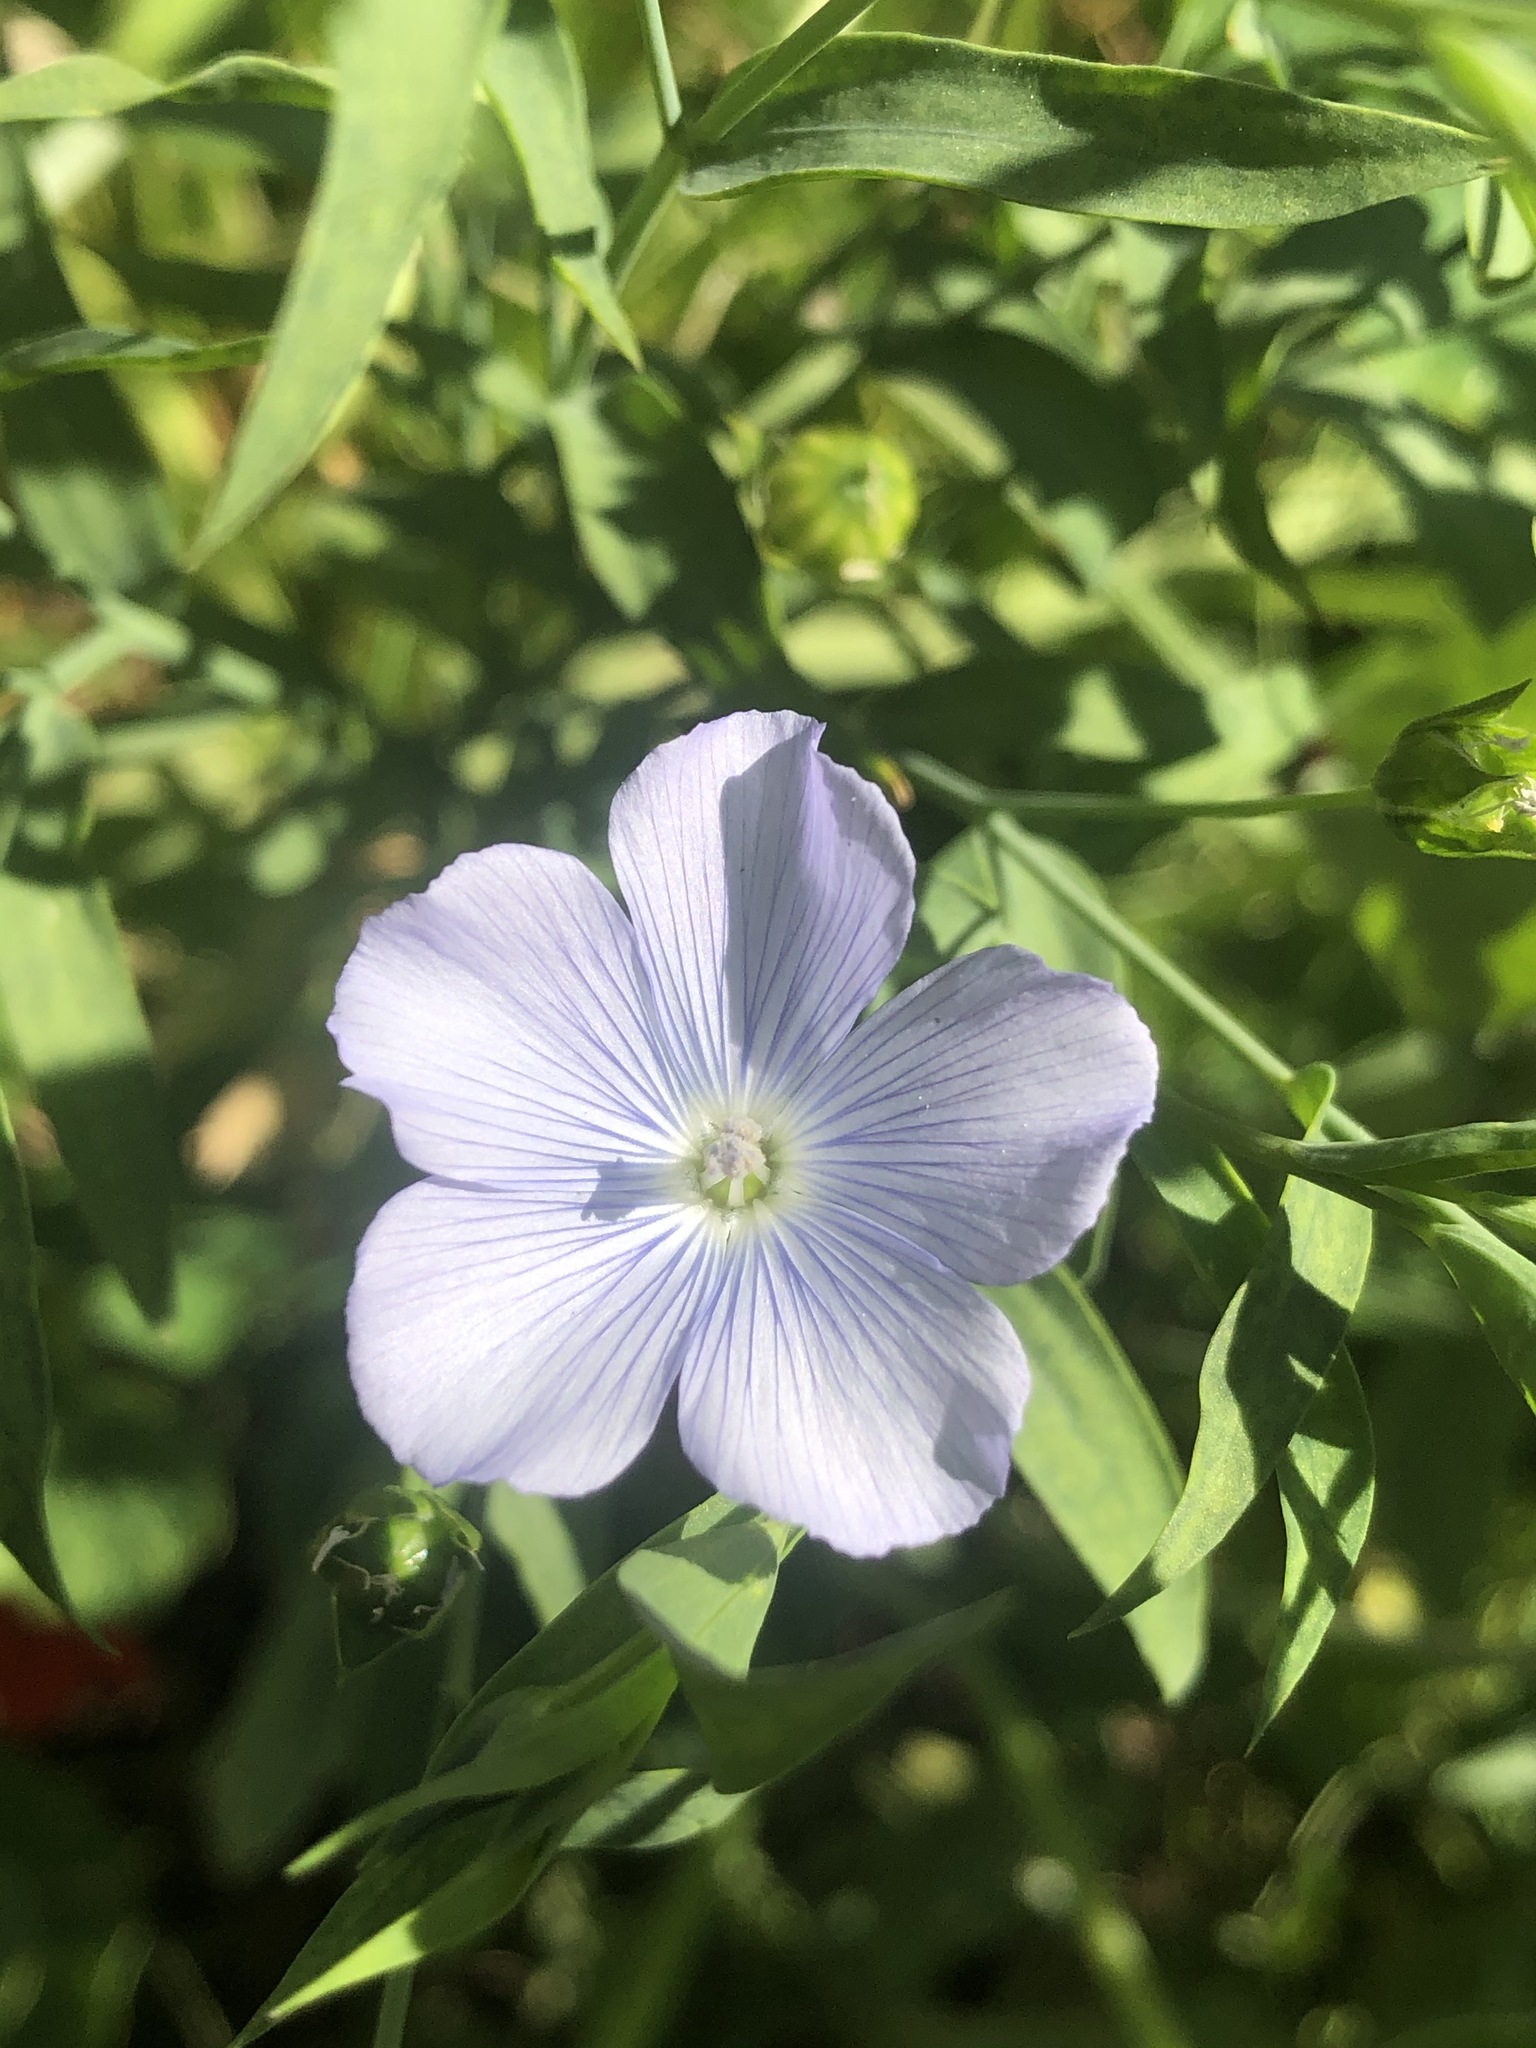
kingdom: Plantae
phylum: Tracheophyta
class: Magnoliopsida
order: Malpighiales
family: Linaceae
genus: Linum
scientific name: Linum usitatissimum
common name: Flax
